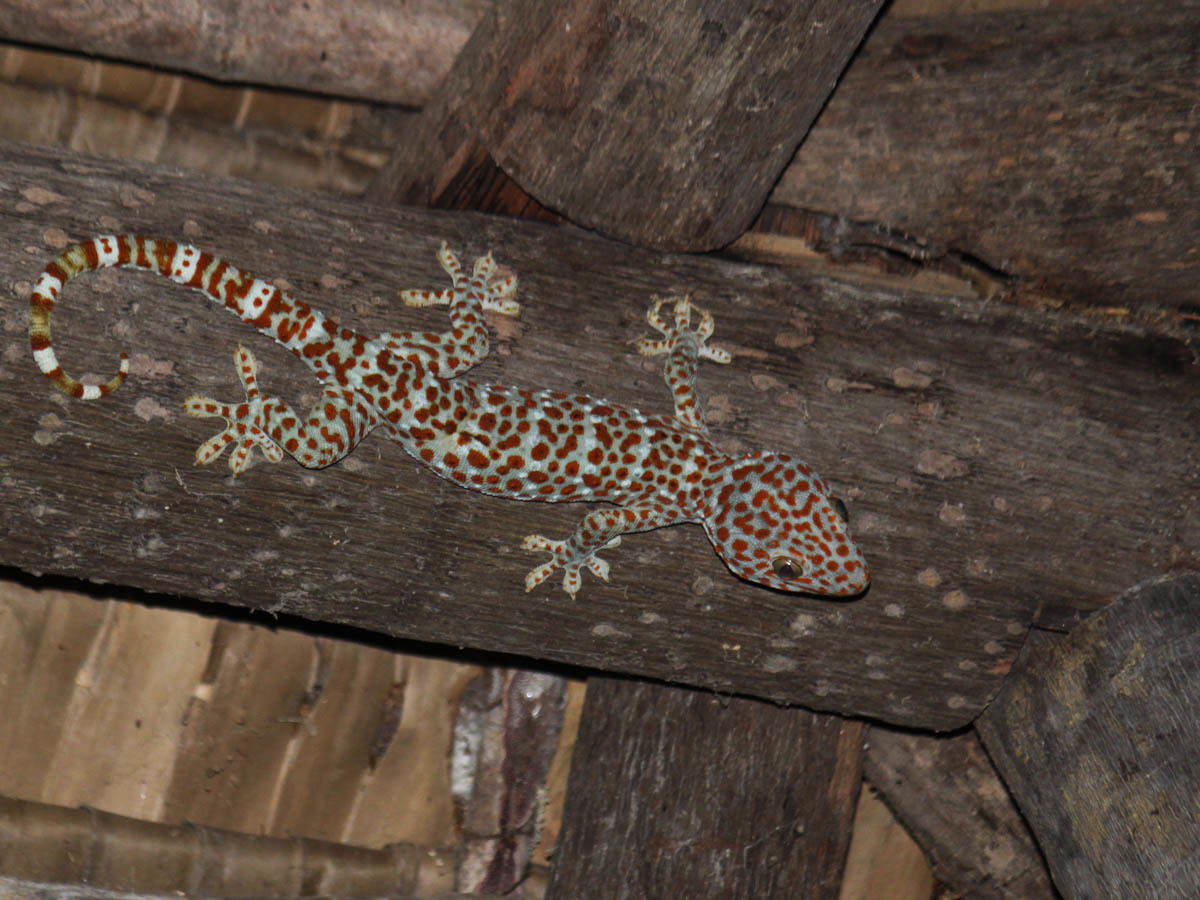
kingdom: Animalia
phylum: Chordata
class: Squamata
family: Gekkonidae
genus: Gekko
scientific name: Gekko gecko
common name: Tokay gecko
